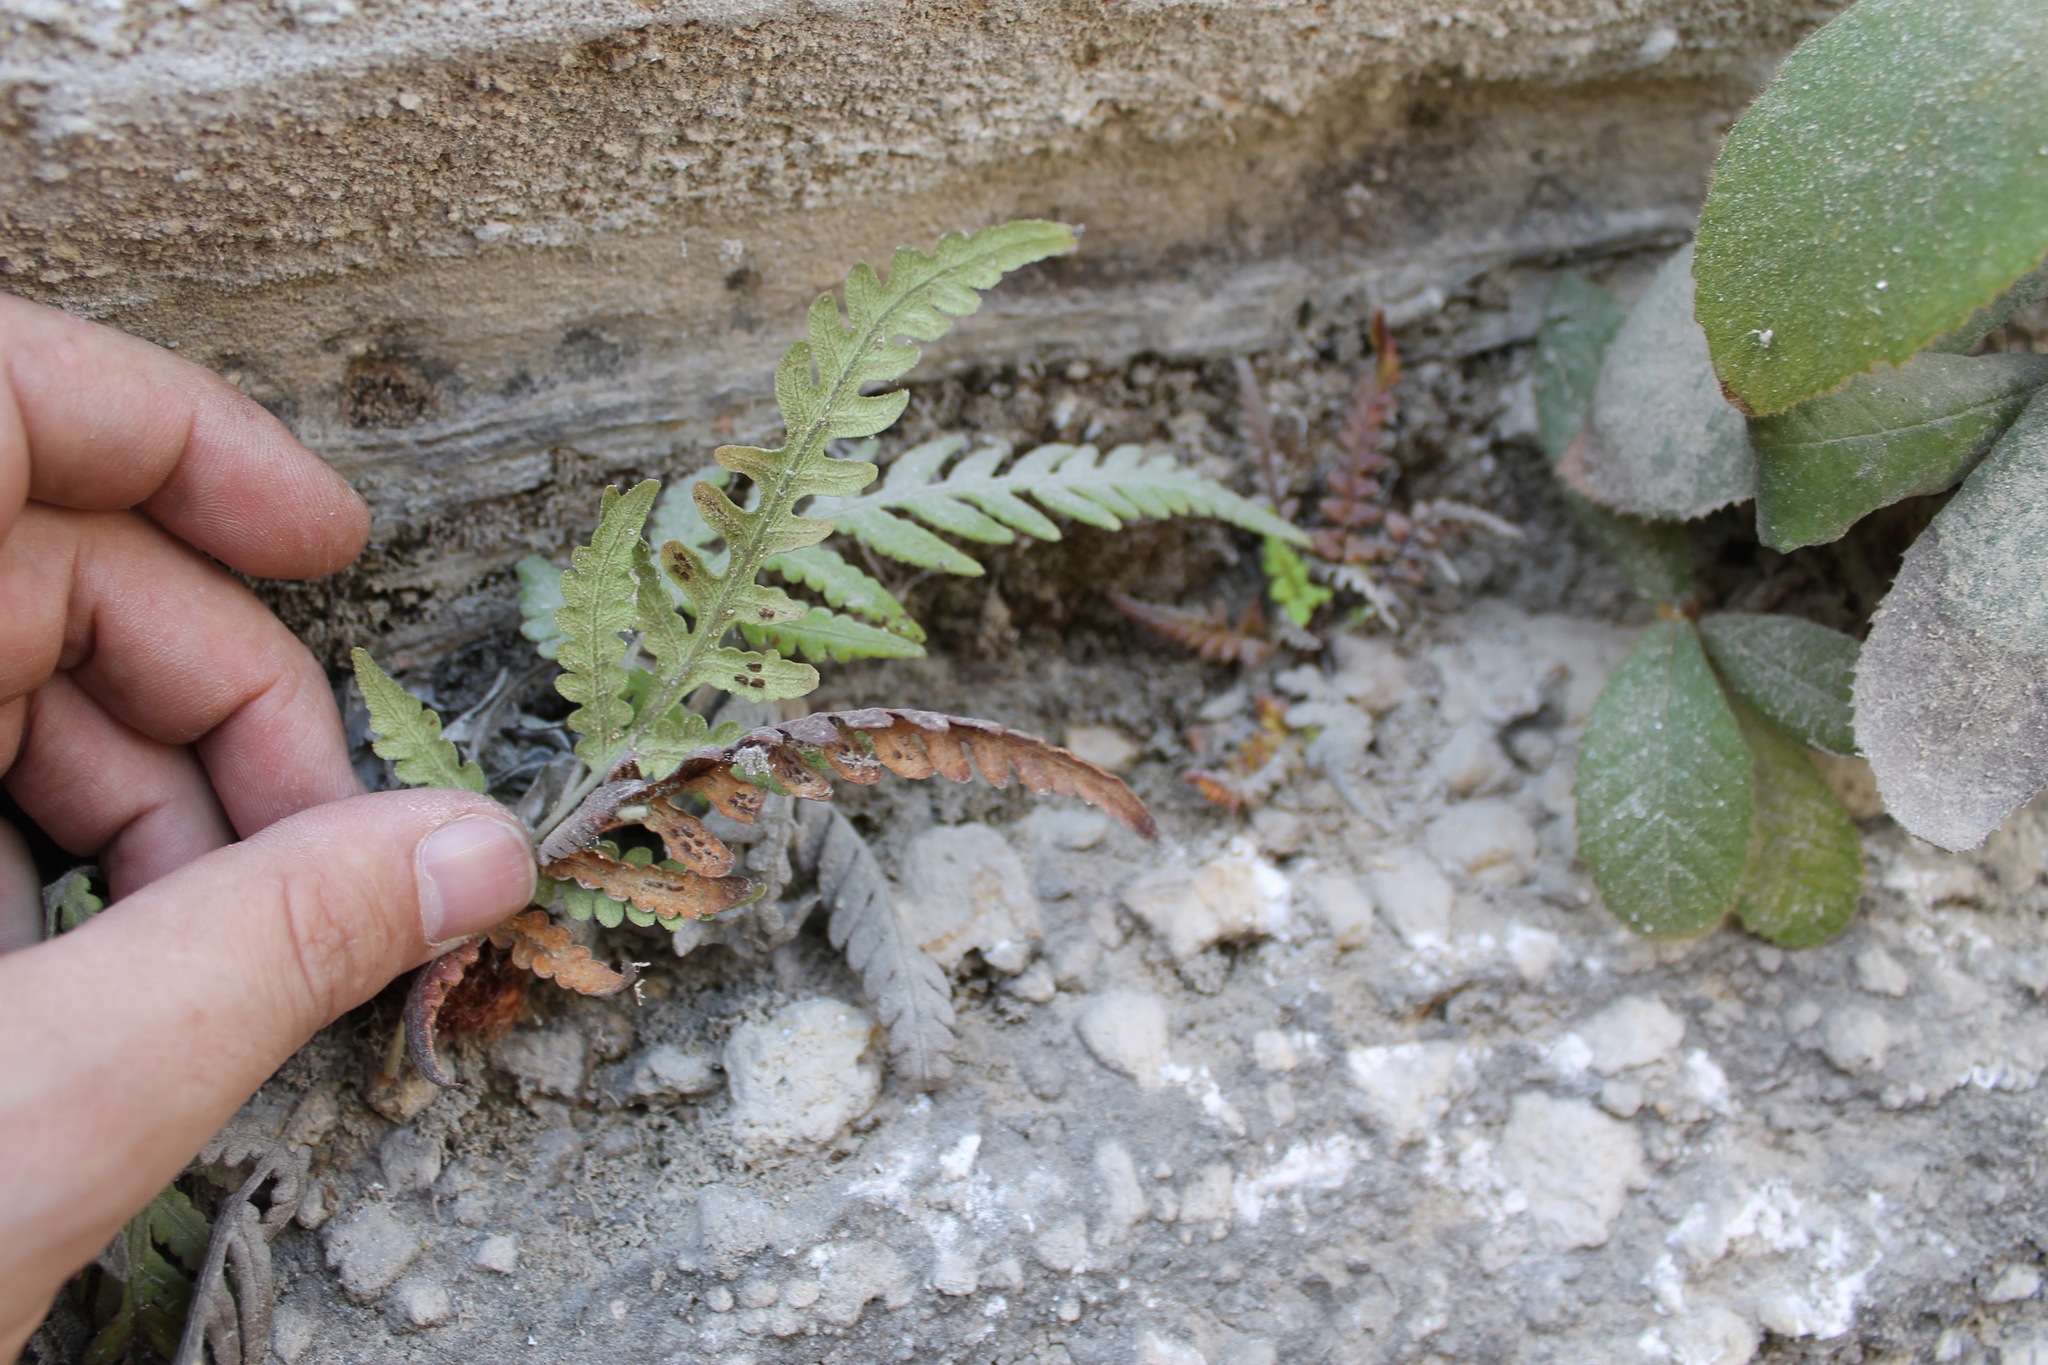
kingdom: Plantae
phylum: Tracheophyta
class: Polypodiopsida
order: Polypodiales
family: Blechnaceae
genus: Woodwardia
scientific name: Woodwardia spinulosa
